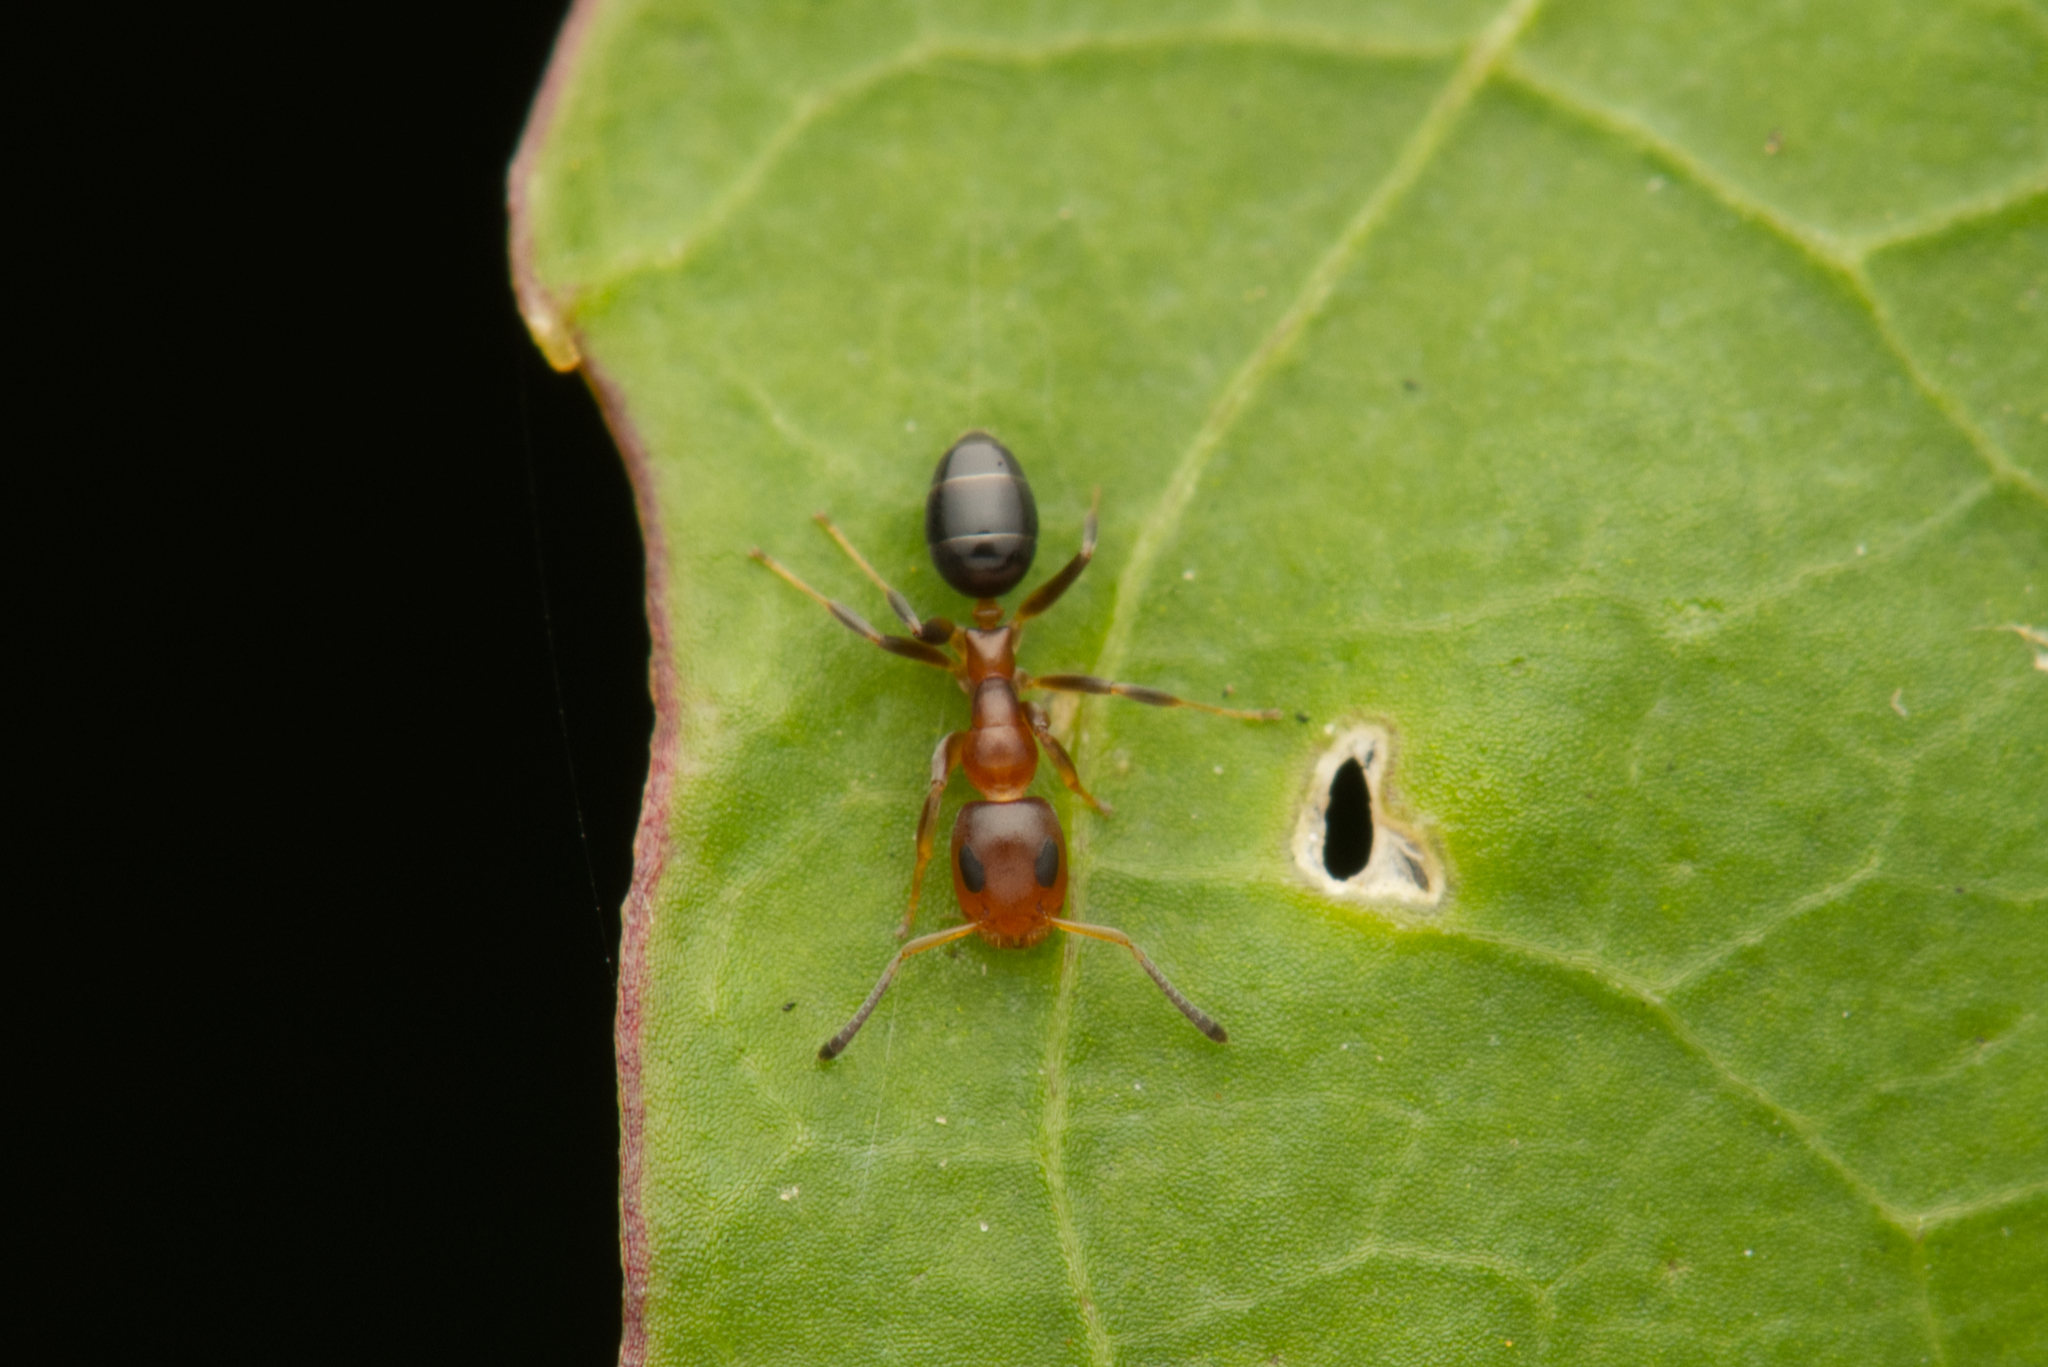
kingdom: Animalia
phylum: Arthropoda
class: Insecta
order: Hymenoptera
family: Formicidae
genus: Turneria
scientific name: Turneria bidentata
